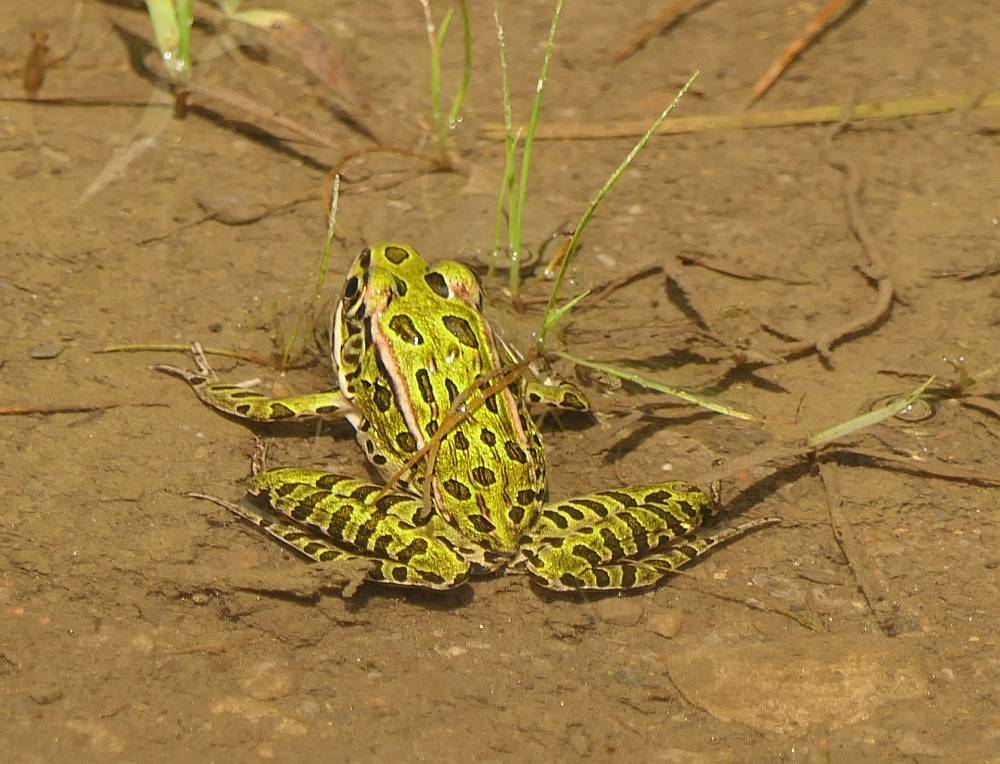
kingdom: Animalia
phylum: Chordata
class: Amphibia
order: Anura
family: Ranidae
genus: Lithobates
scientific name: Lithobates pipiens
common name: Northern leopard frog
